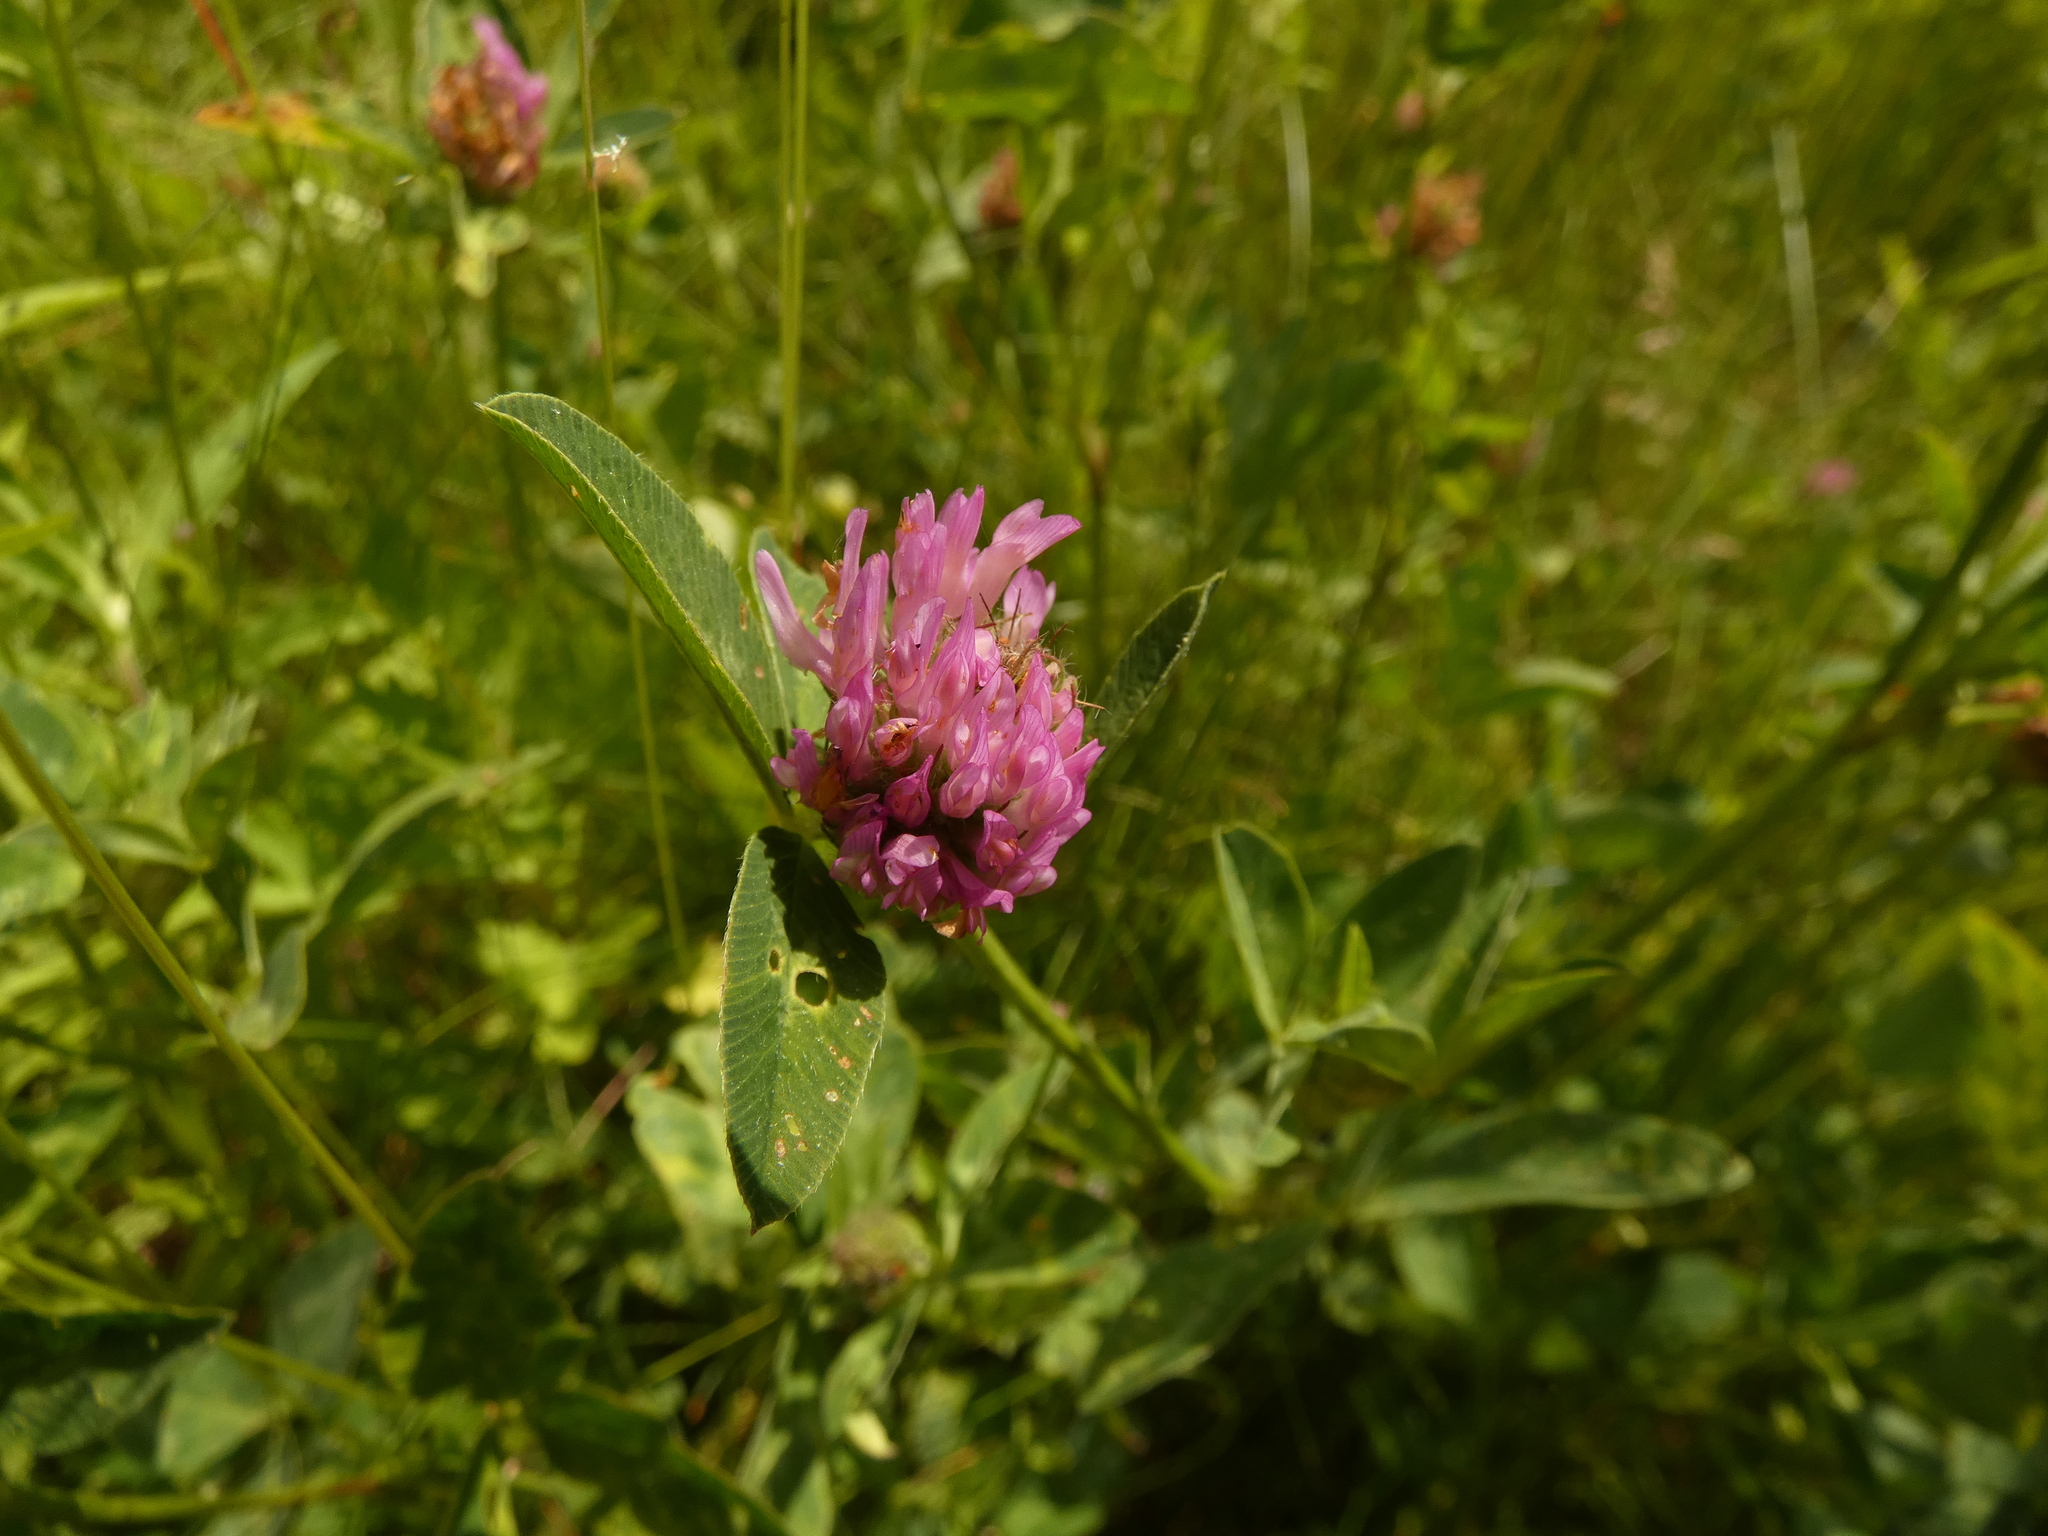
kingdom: Plantae
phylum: Tracheophyta
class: Magnoliopsida
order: Fabales
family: Fabaceae
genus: Trifolium
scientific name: Trifolium pratense
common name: Red clover
